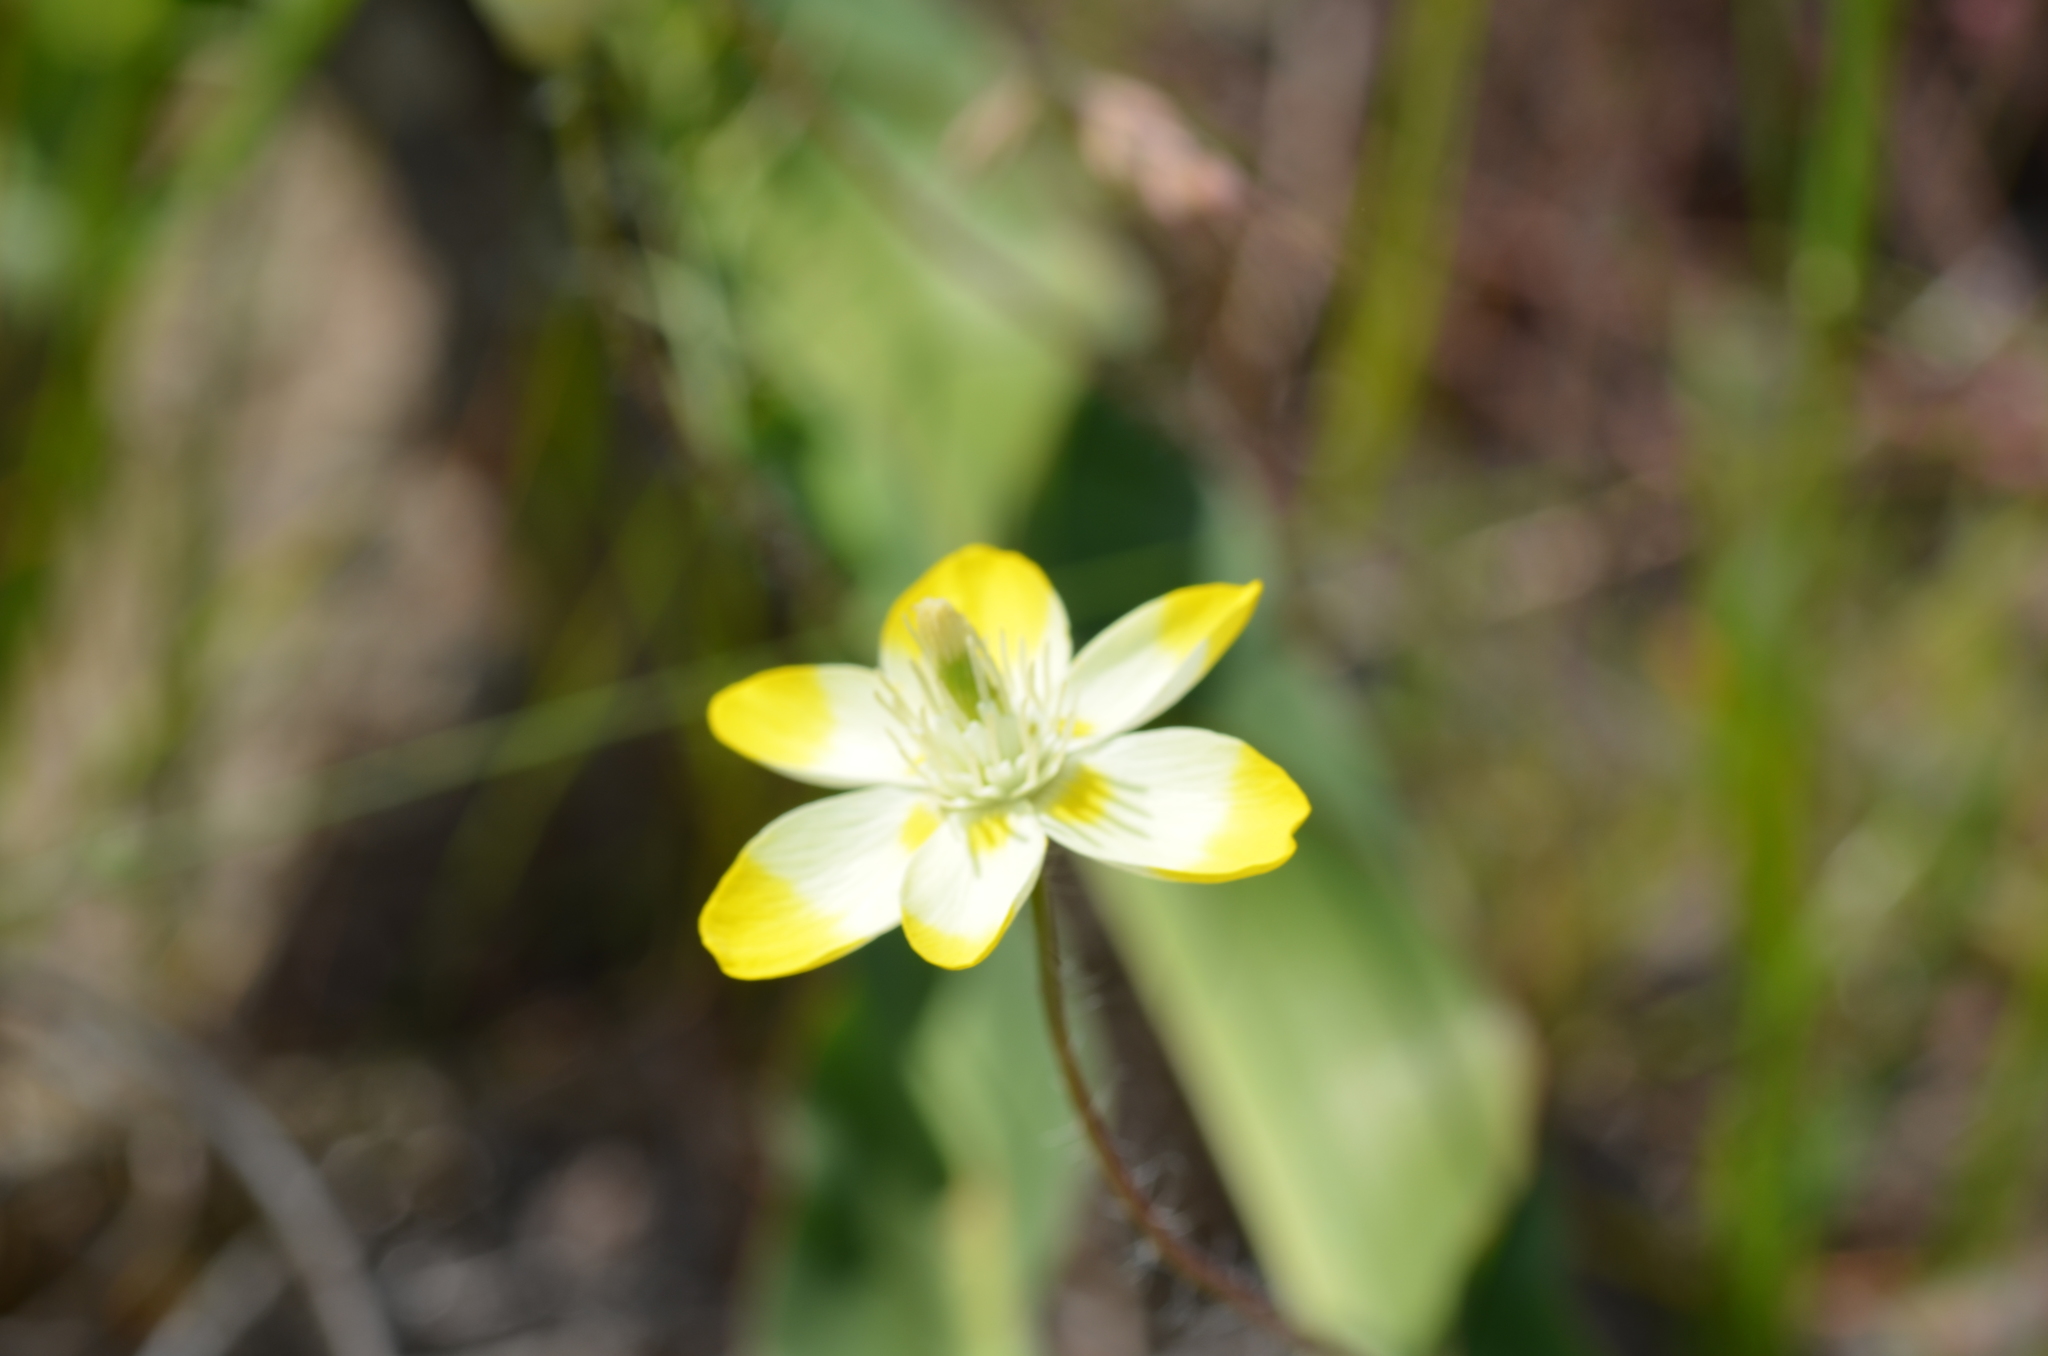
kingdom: Plantae
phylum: Tracheophyta
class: Magnoliopsida
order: Ranunculales
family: Papaveraceae
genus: Platystemon
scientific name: Platystemon californicus
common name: Cream-cups
